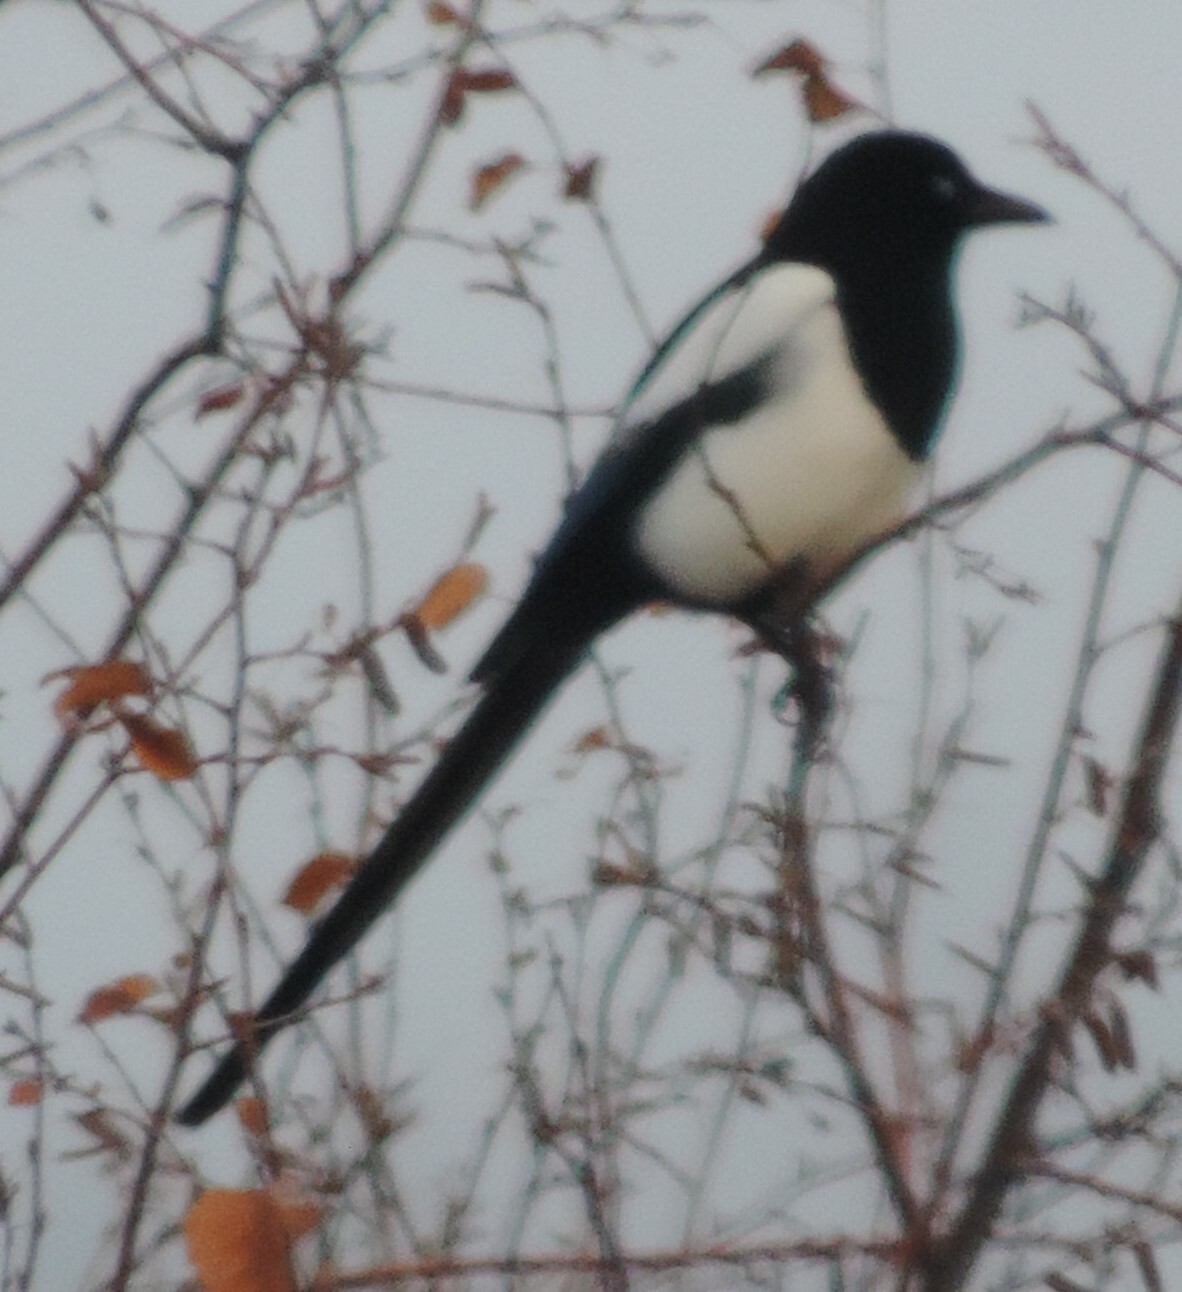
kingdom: Animalia
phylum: Chordata
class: Aves
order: Passeriformes
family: Corvidae
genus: Pica
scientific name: Pica hudsonia
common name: Black-billed magpie
